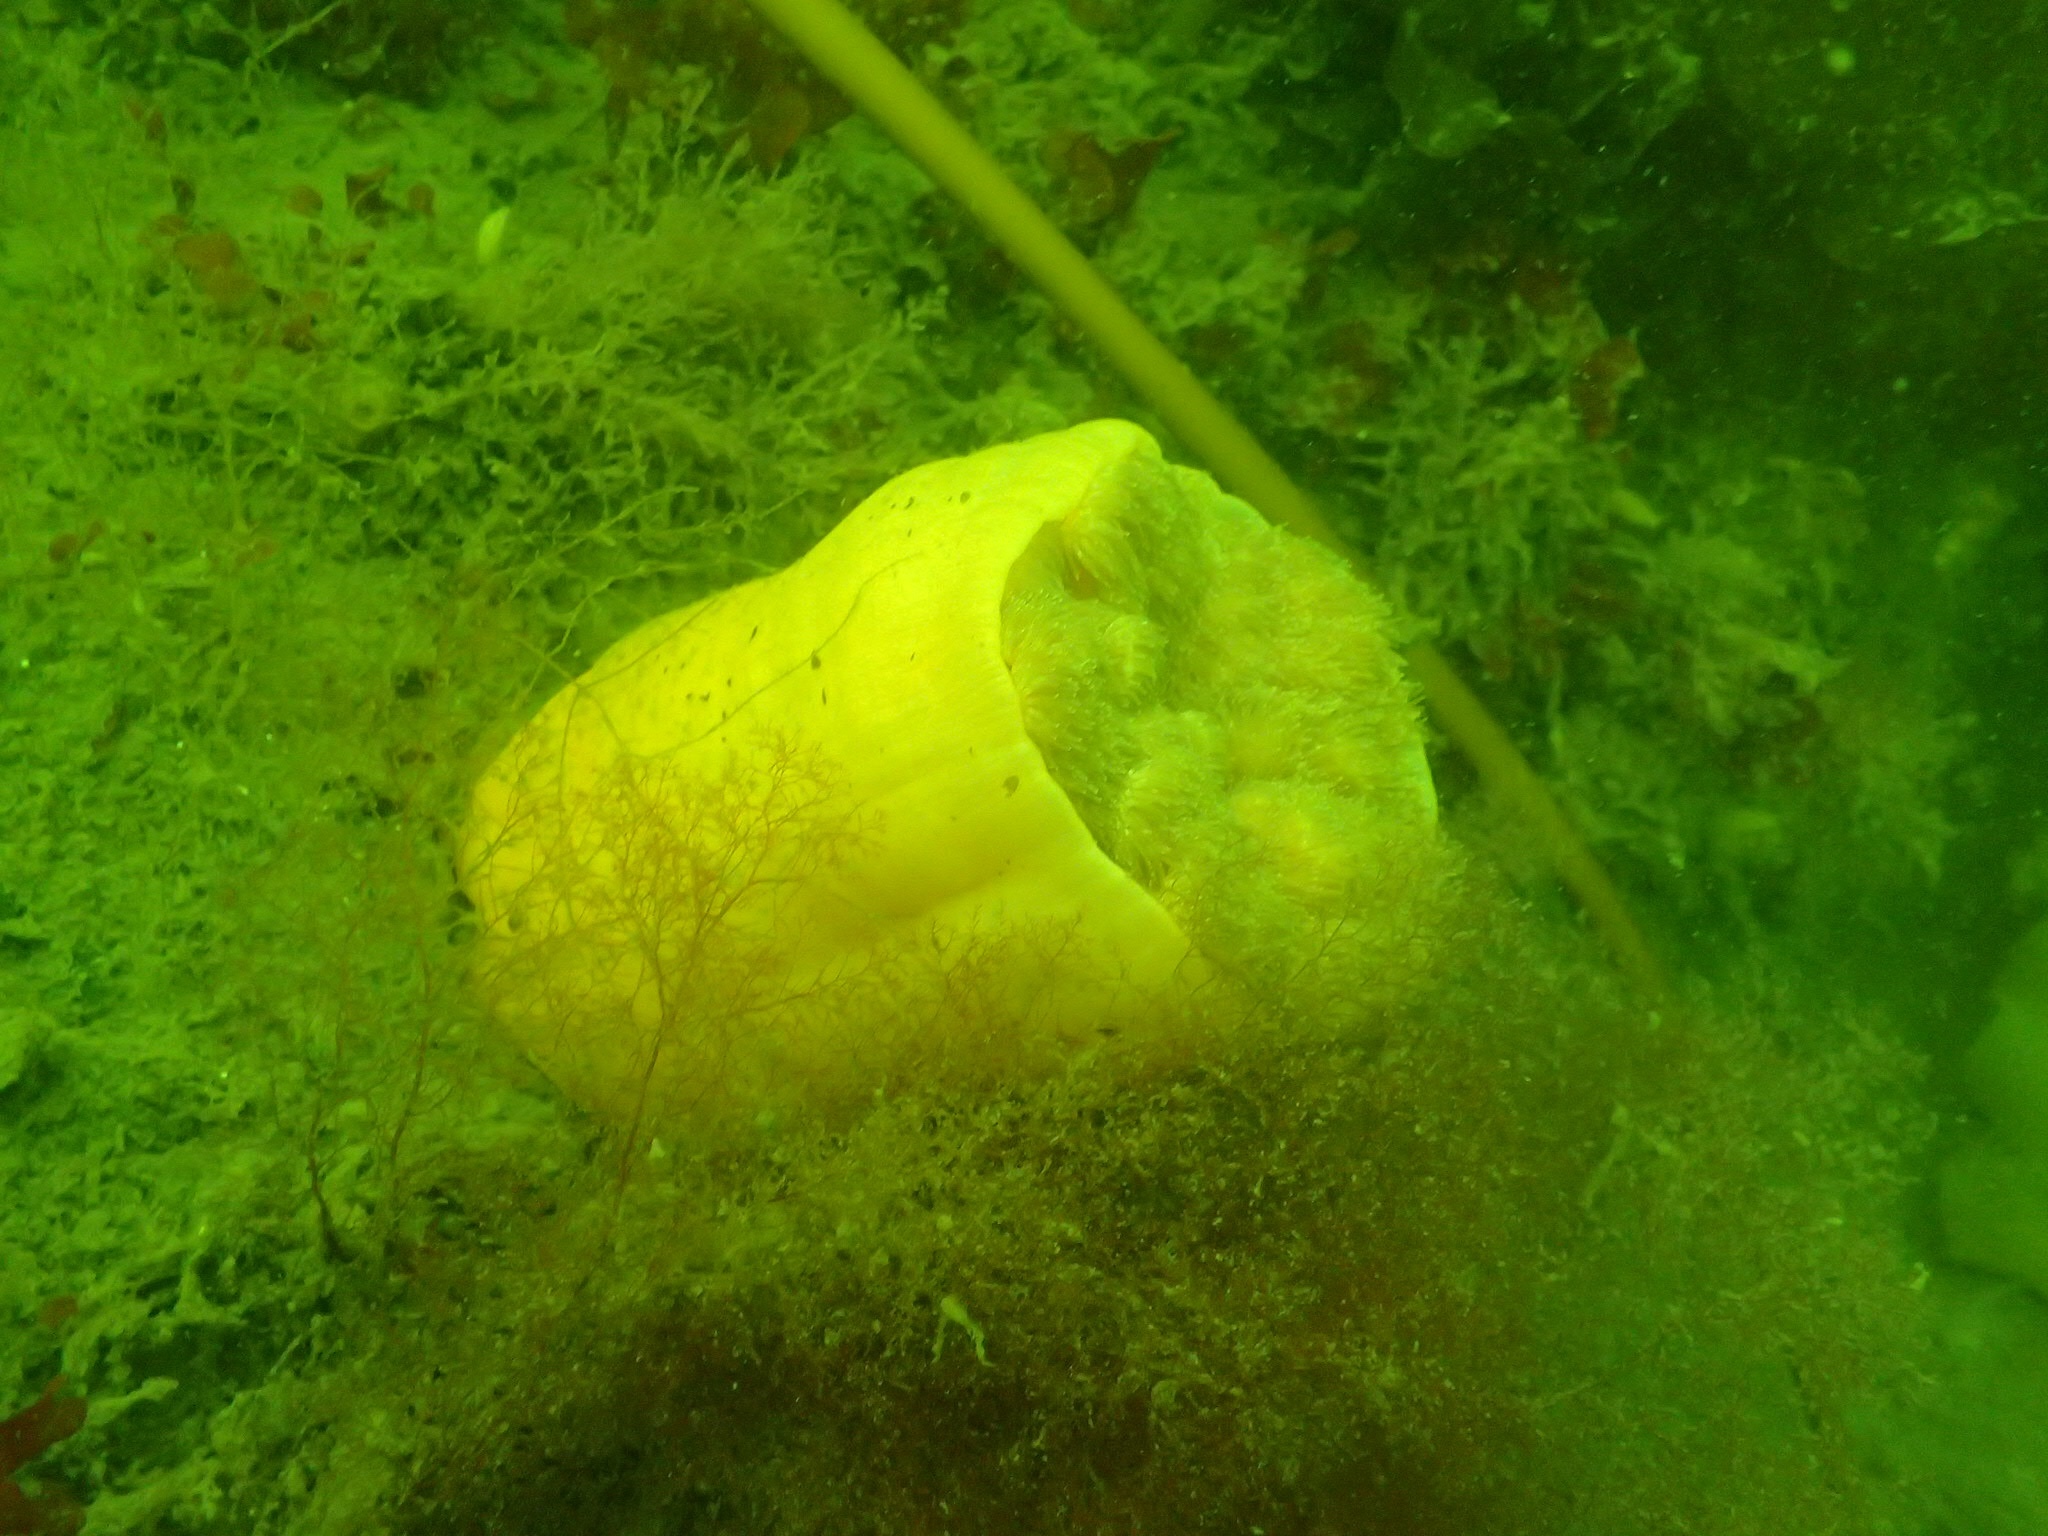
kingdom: Animalia
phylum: Cnidaria
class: Anthozoa
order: Actiniaria
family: Metridiidae
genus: Metridium
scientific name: Metridium senile
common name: Clonal plumose anemone
